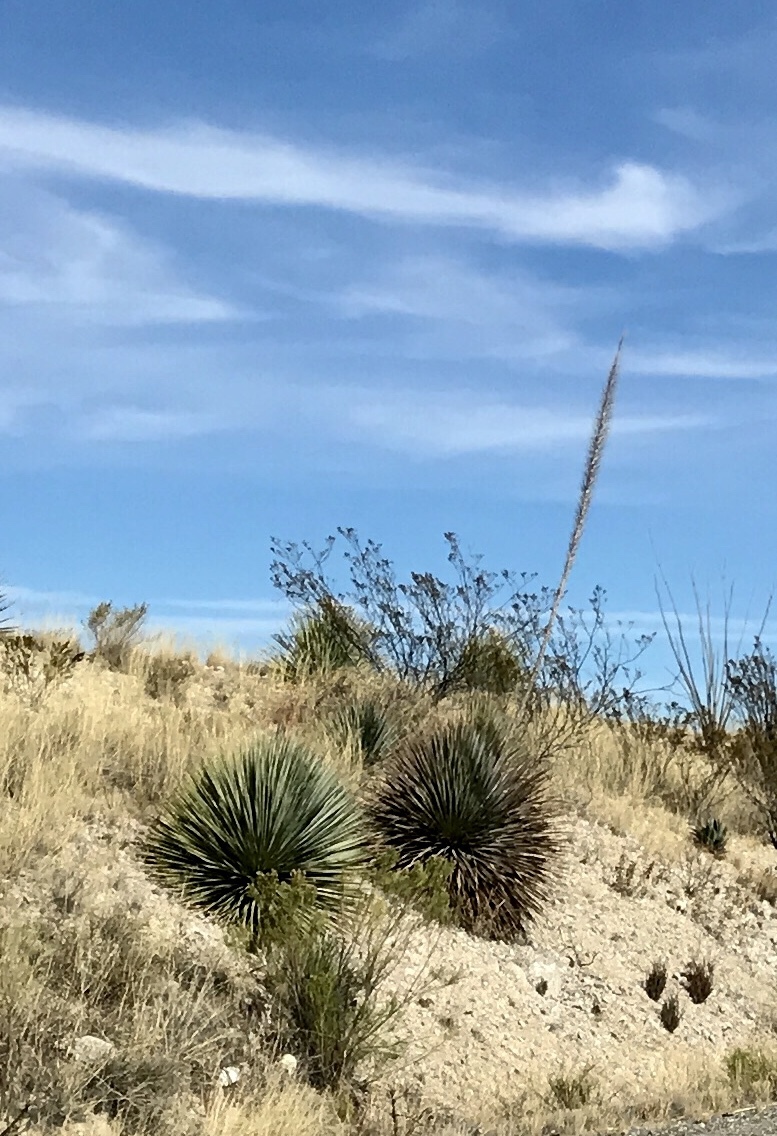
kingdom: Plantae
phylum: Tracheophyta
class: Liliopsida
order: Asparagales
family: Asparagaceae
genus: Dasylirion
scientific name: Dasylirion wheeleri
